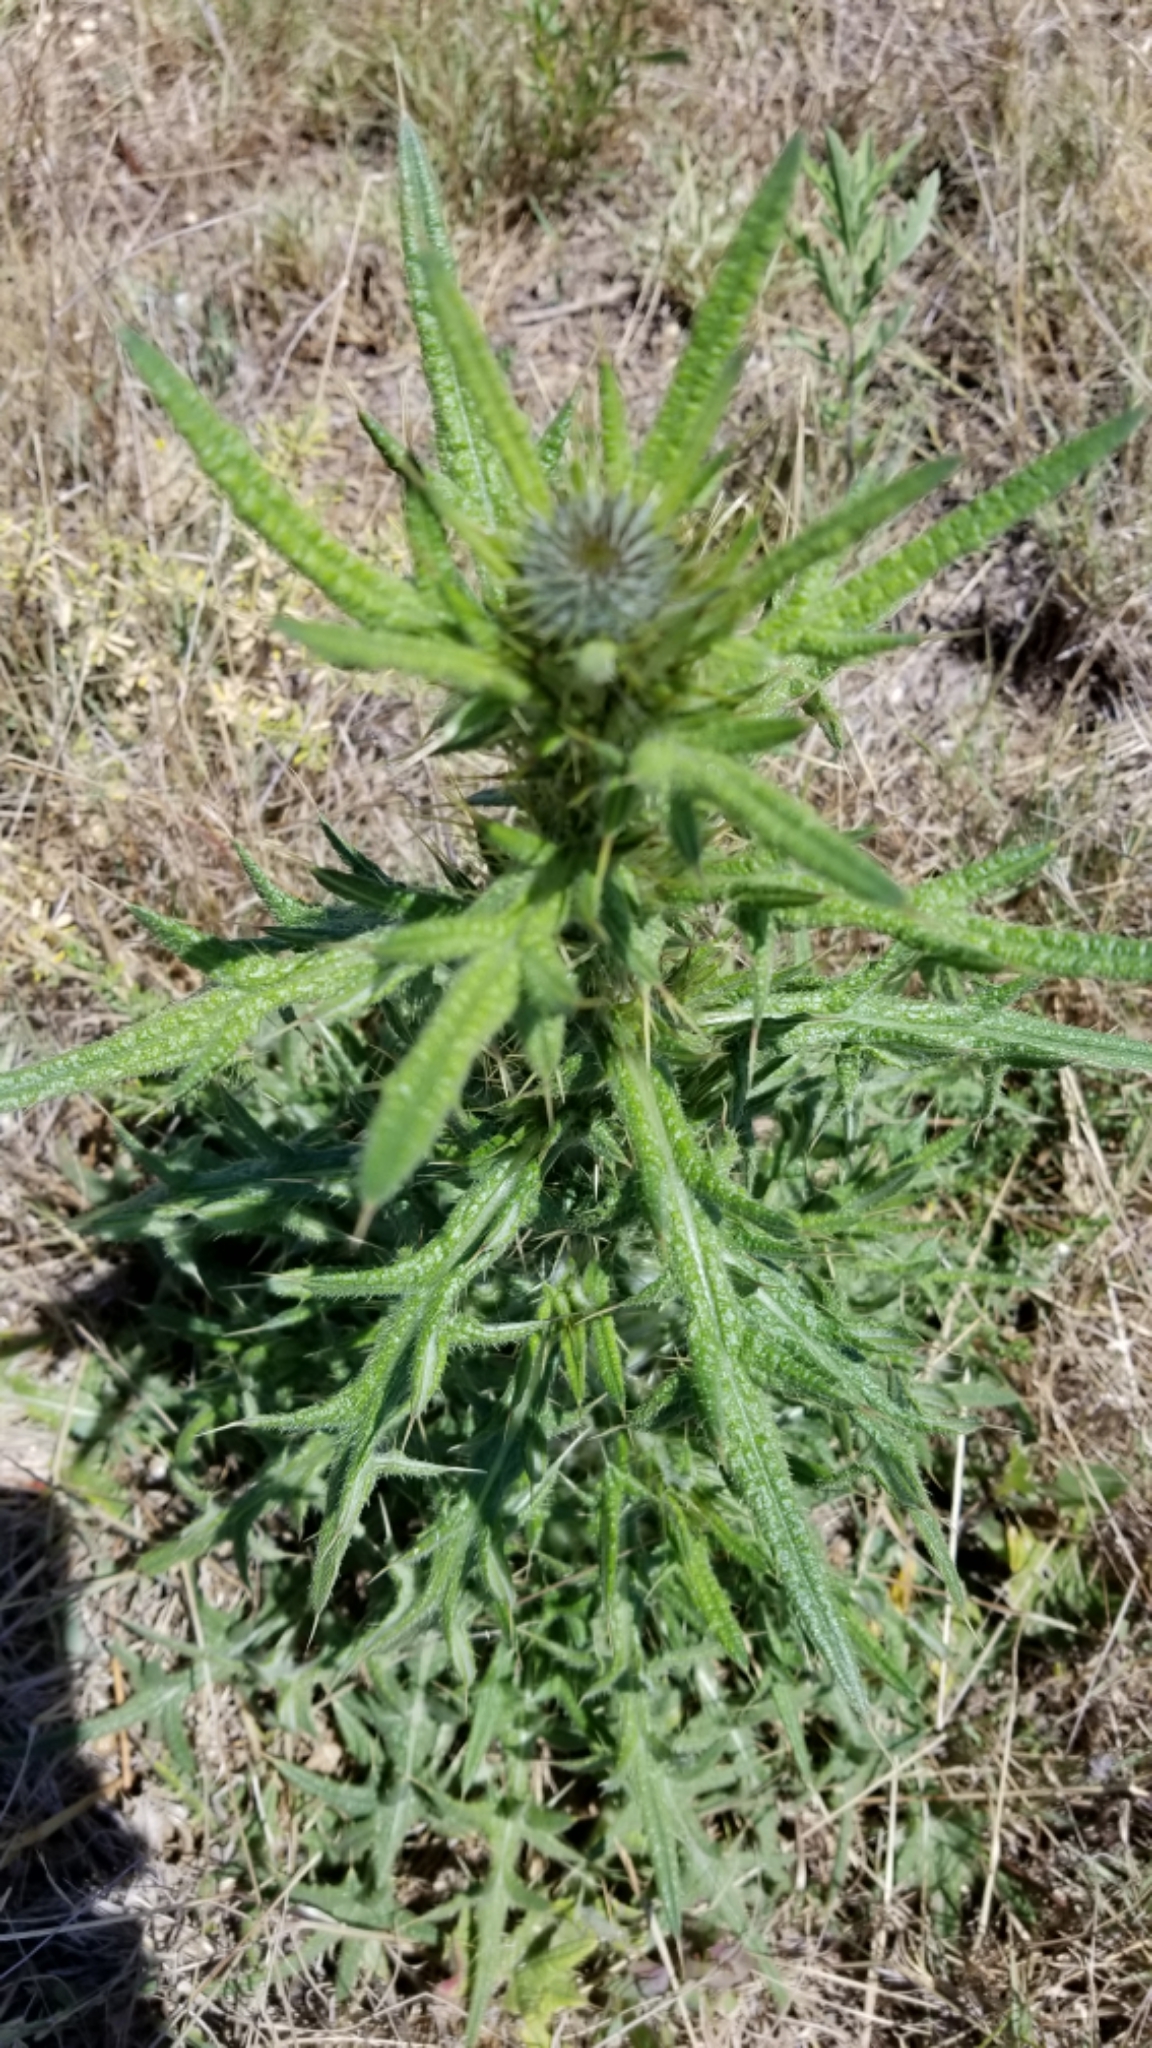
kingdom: Plantae
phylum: Tracheophyta
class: Magnoliopsida
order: Asterales
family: Asteraceae
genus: Cirsium
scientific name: Cirsium vulgare
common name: Bull thistle
